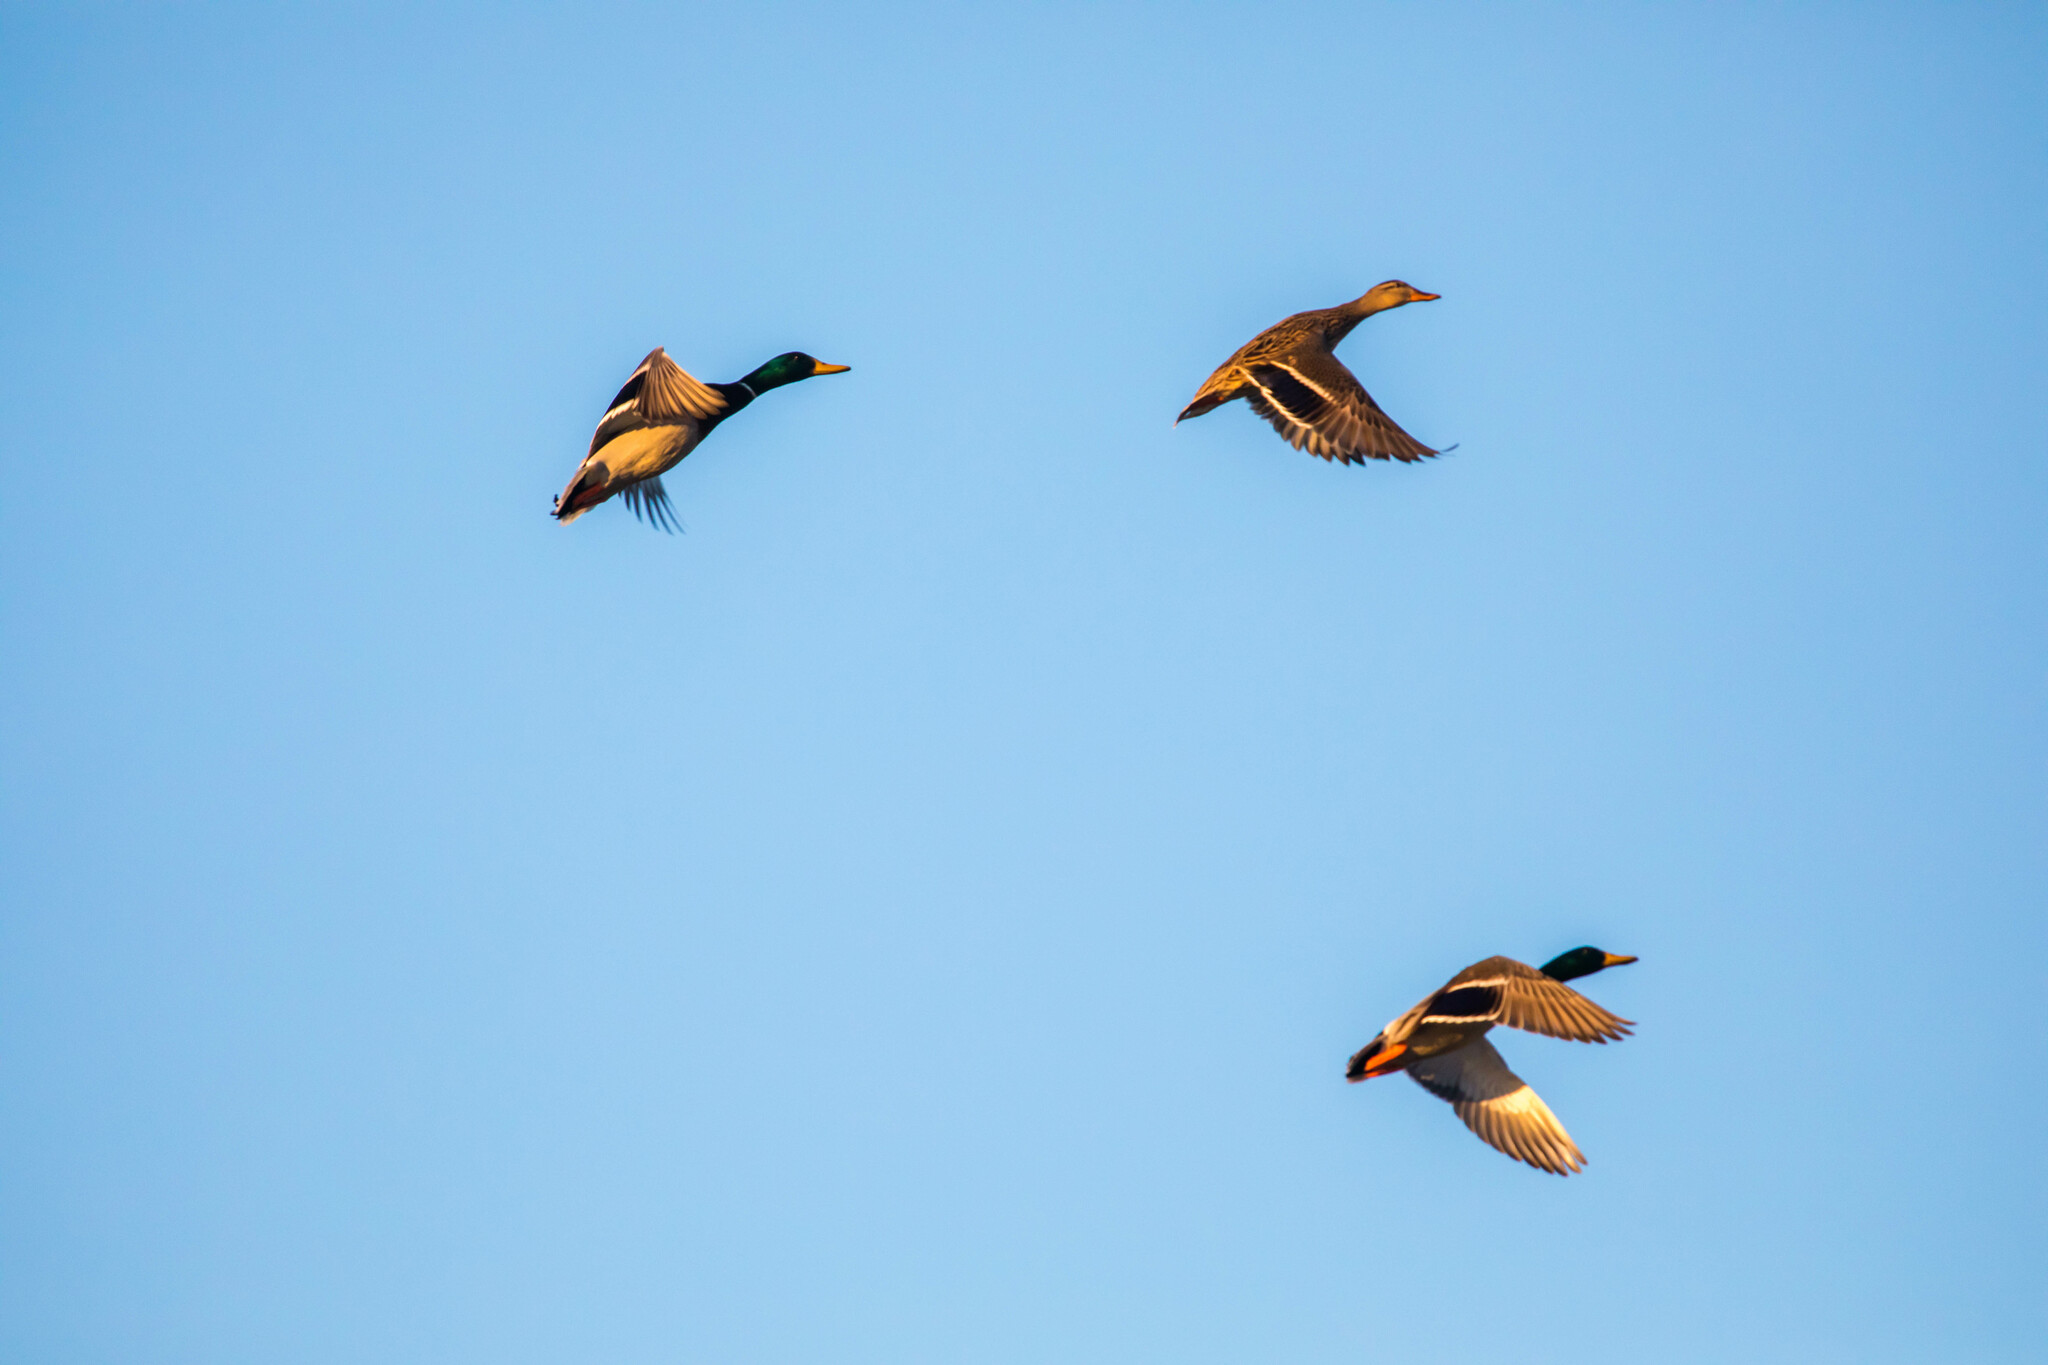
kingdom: Animalia
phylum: Chordata
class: Aves
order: Anseriformes
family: Anatidae
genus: Anas
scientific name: Anas platyrhynchos
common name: Mallard
